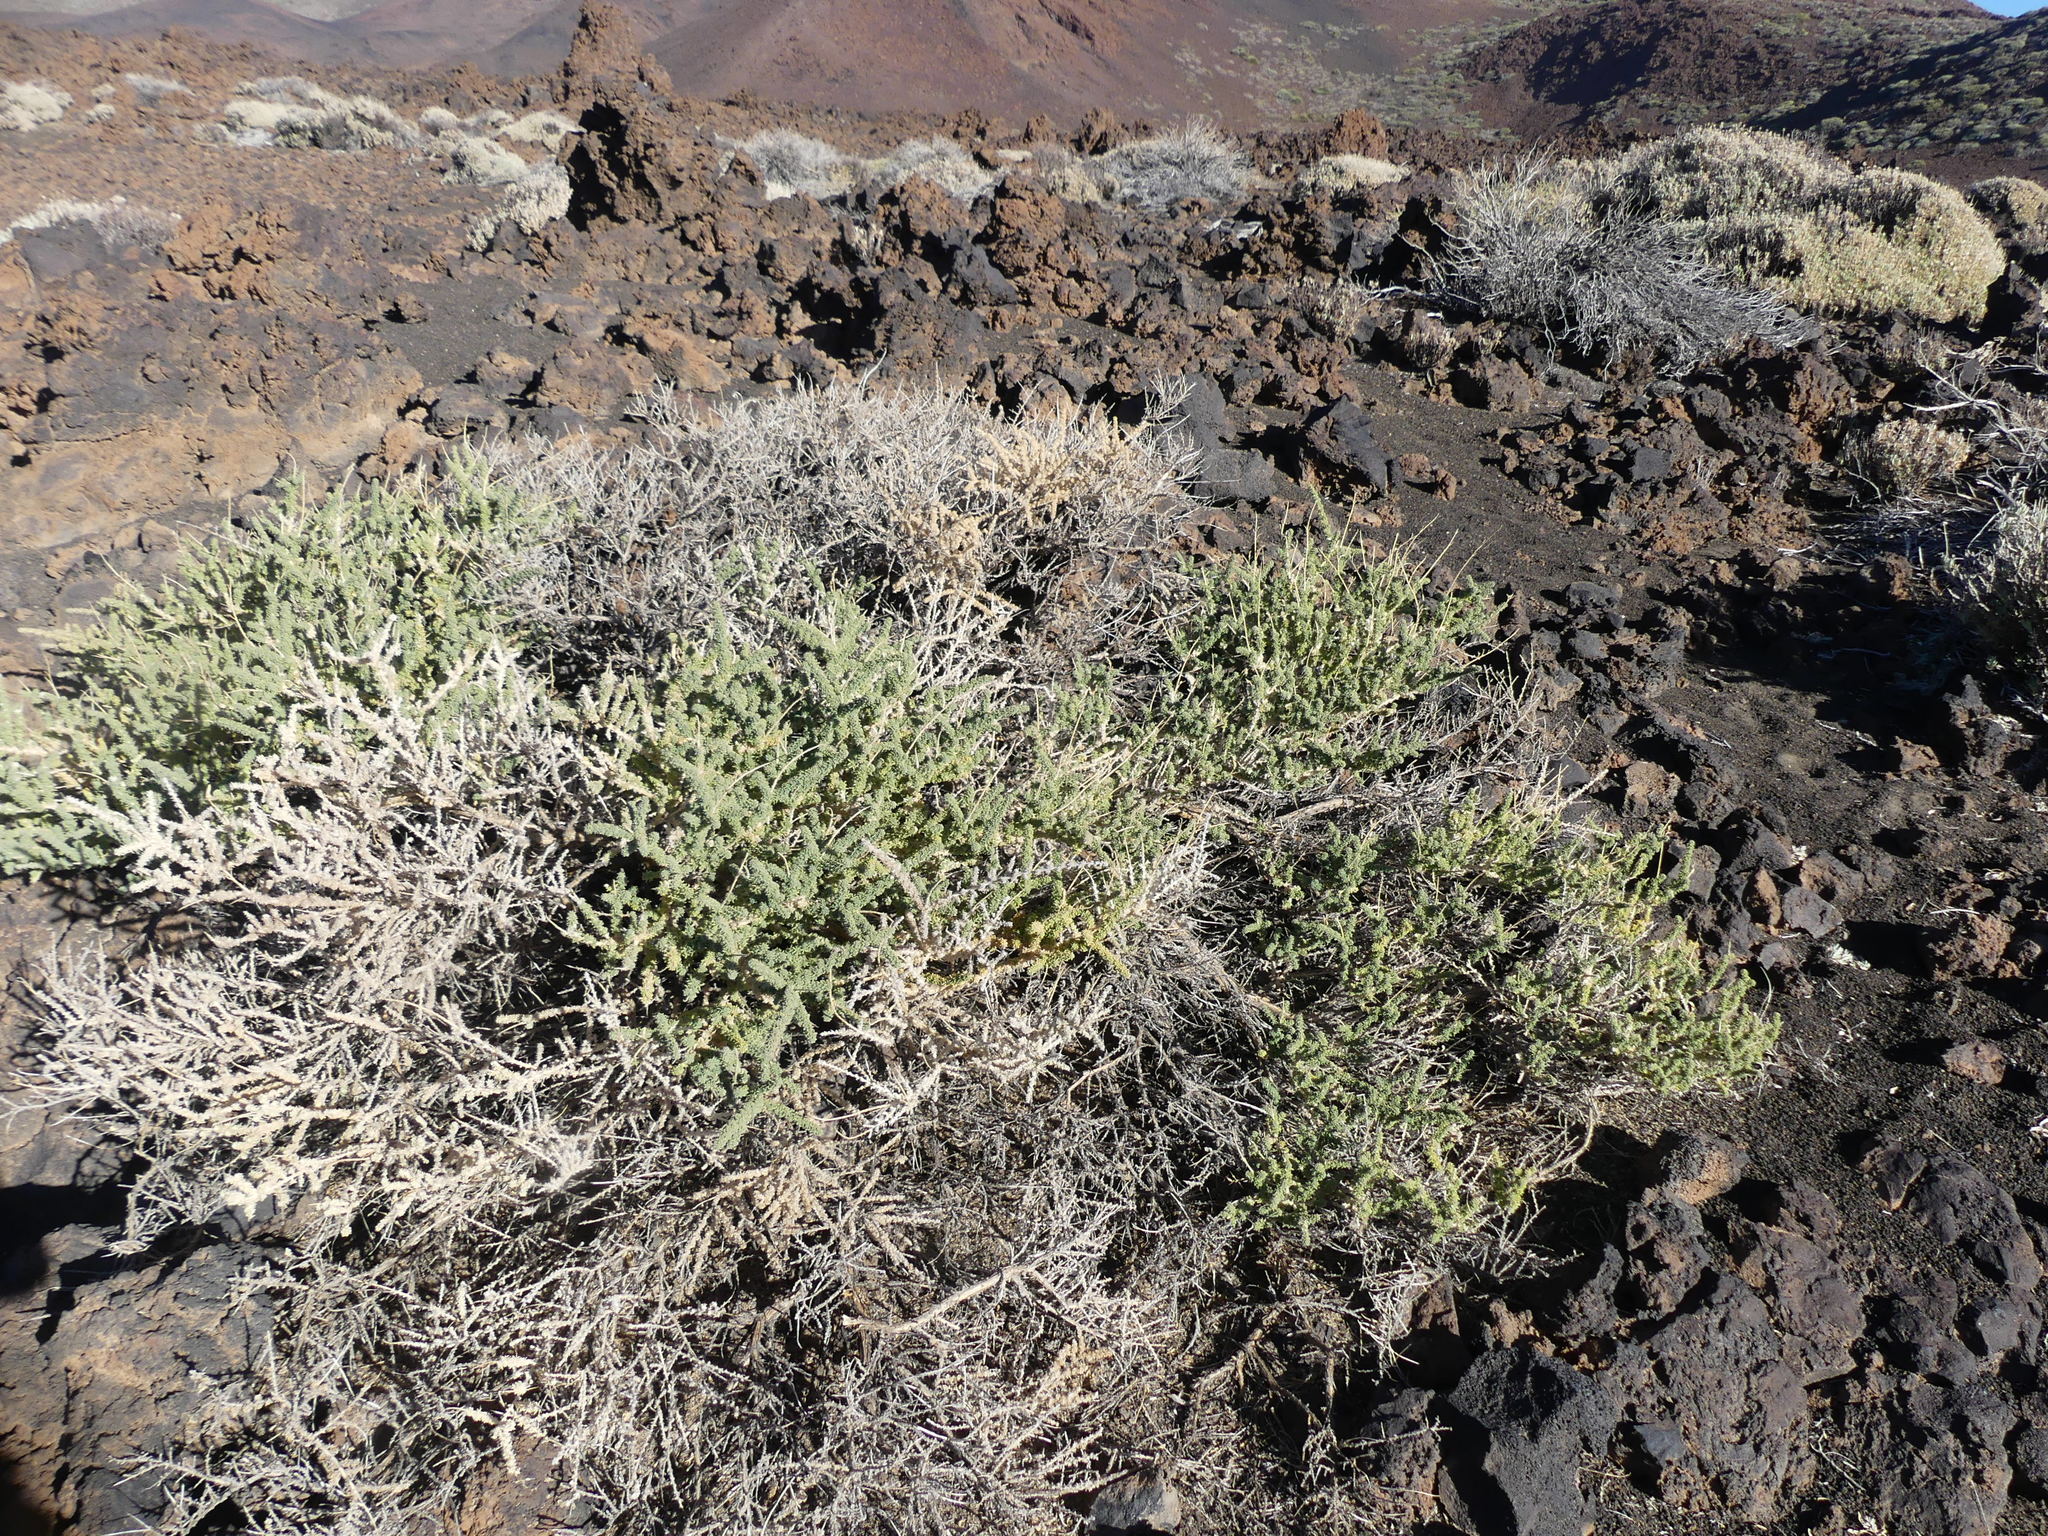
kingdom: Plantae
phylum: Tracheophyta
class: Magnoliopsida
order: Fabales
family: Fabaceae
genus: Adenocarpus
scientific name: Adenocarpus viscosus
